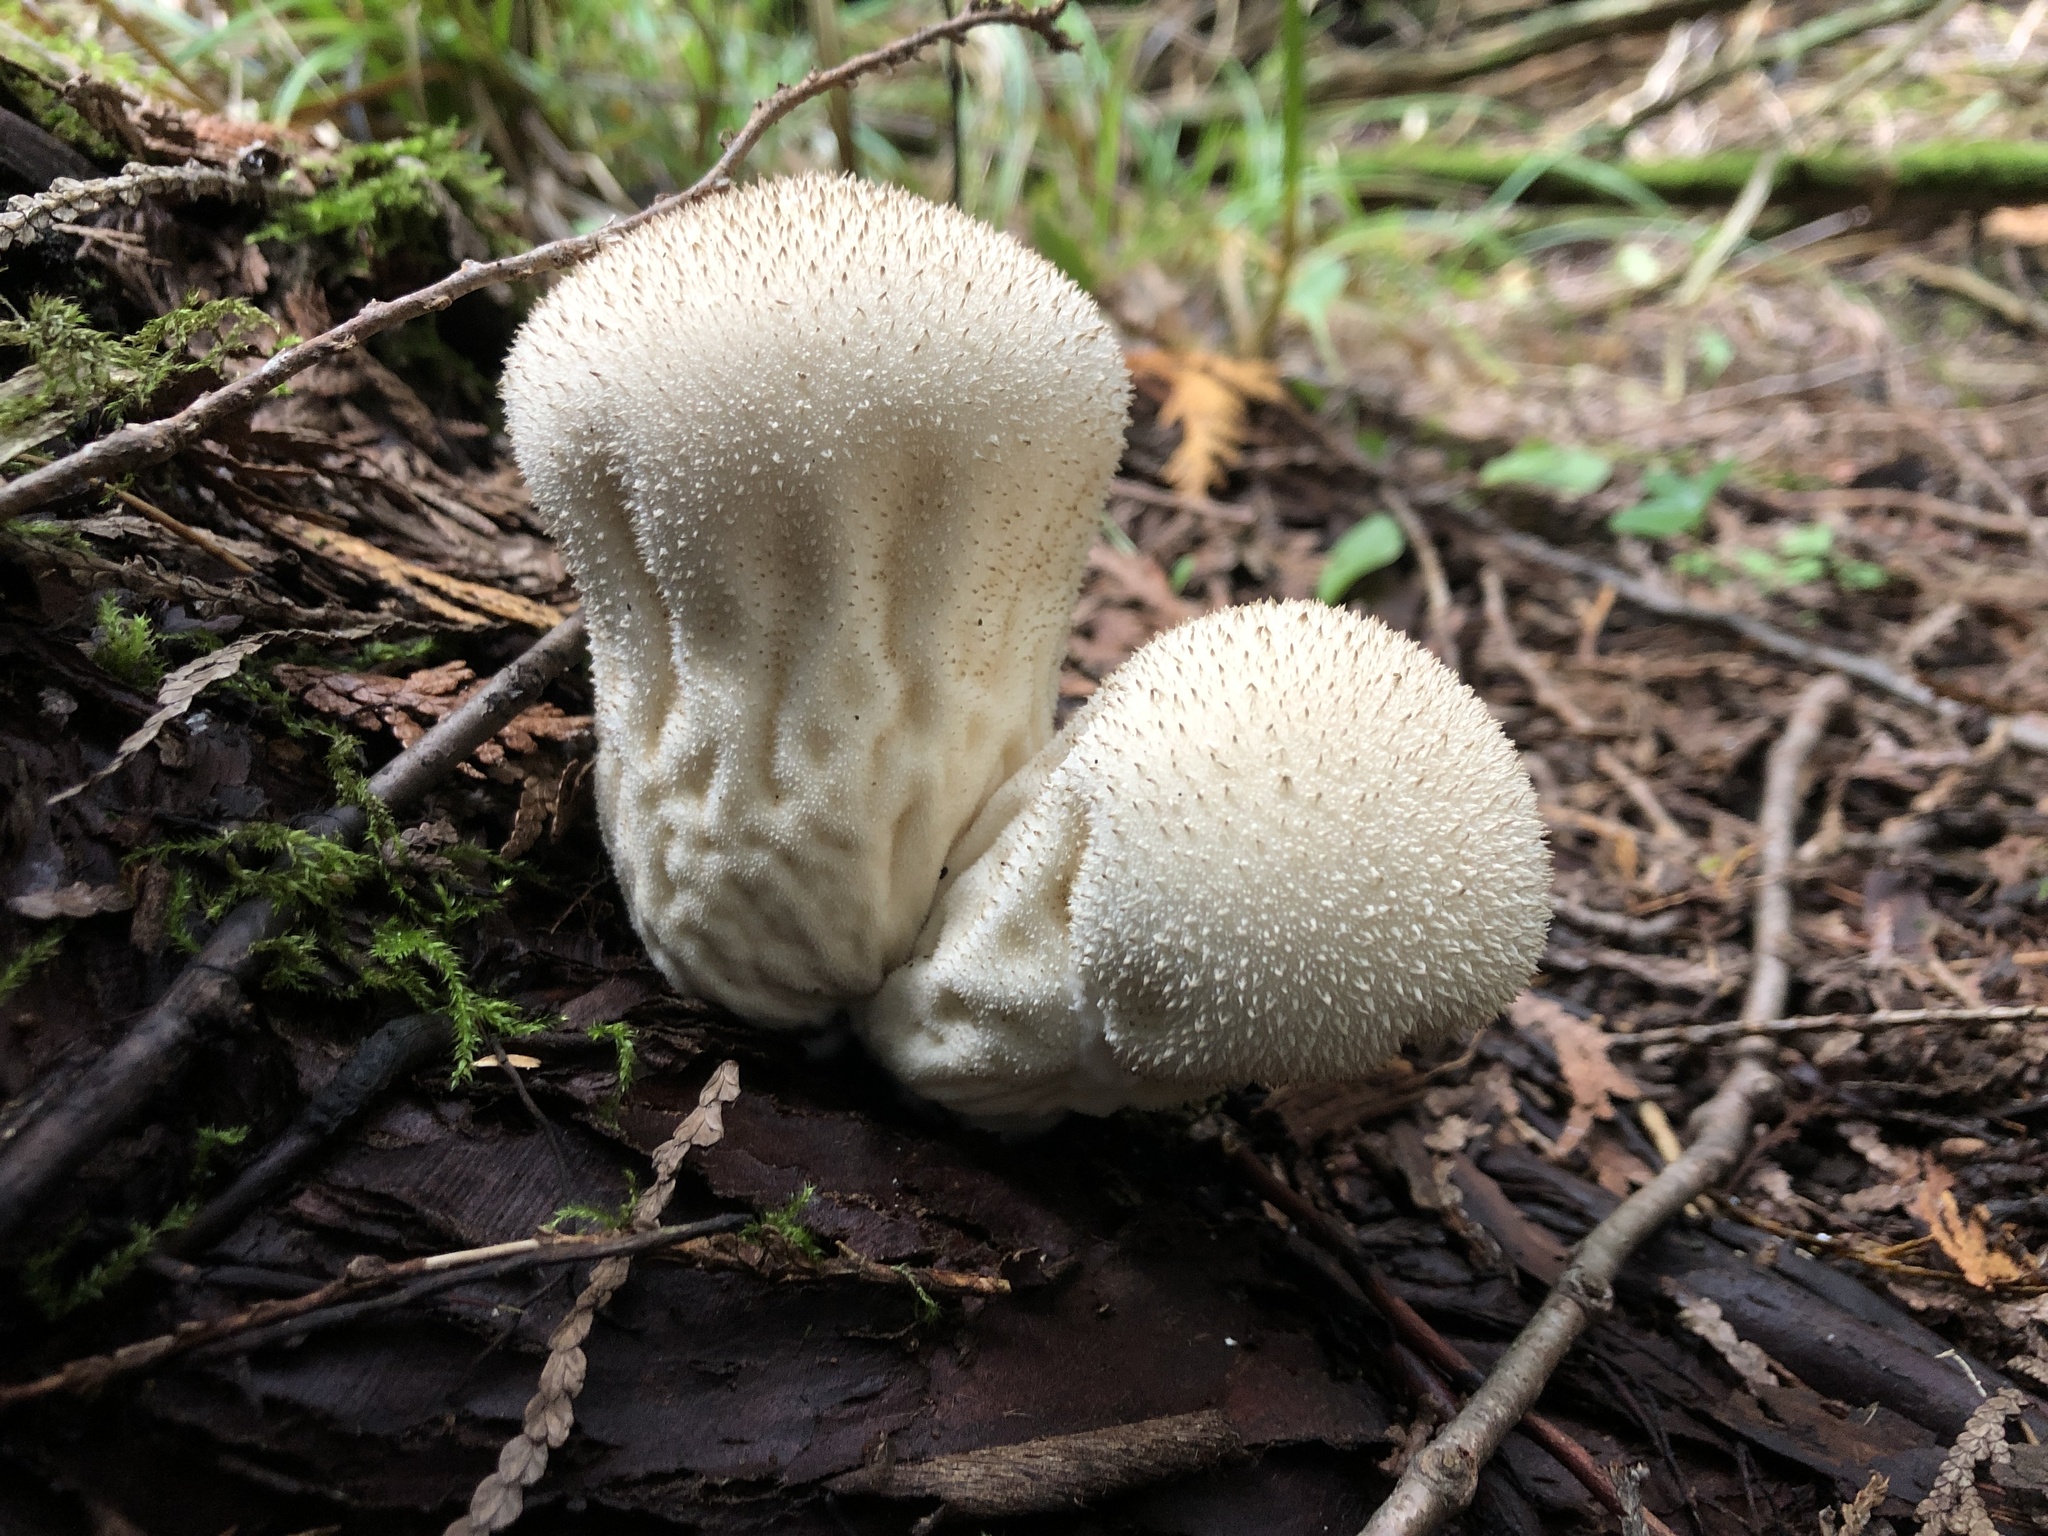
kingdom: Fungi
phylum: Basidiomycota
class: Agaricomycetes
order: Agaricales
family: Lycoperdaceae
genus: Lycoperdon
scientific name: Lycoperdon perlatum
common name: Common puffball
